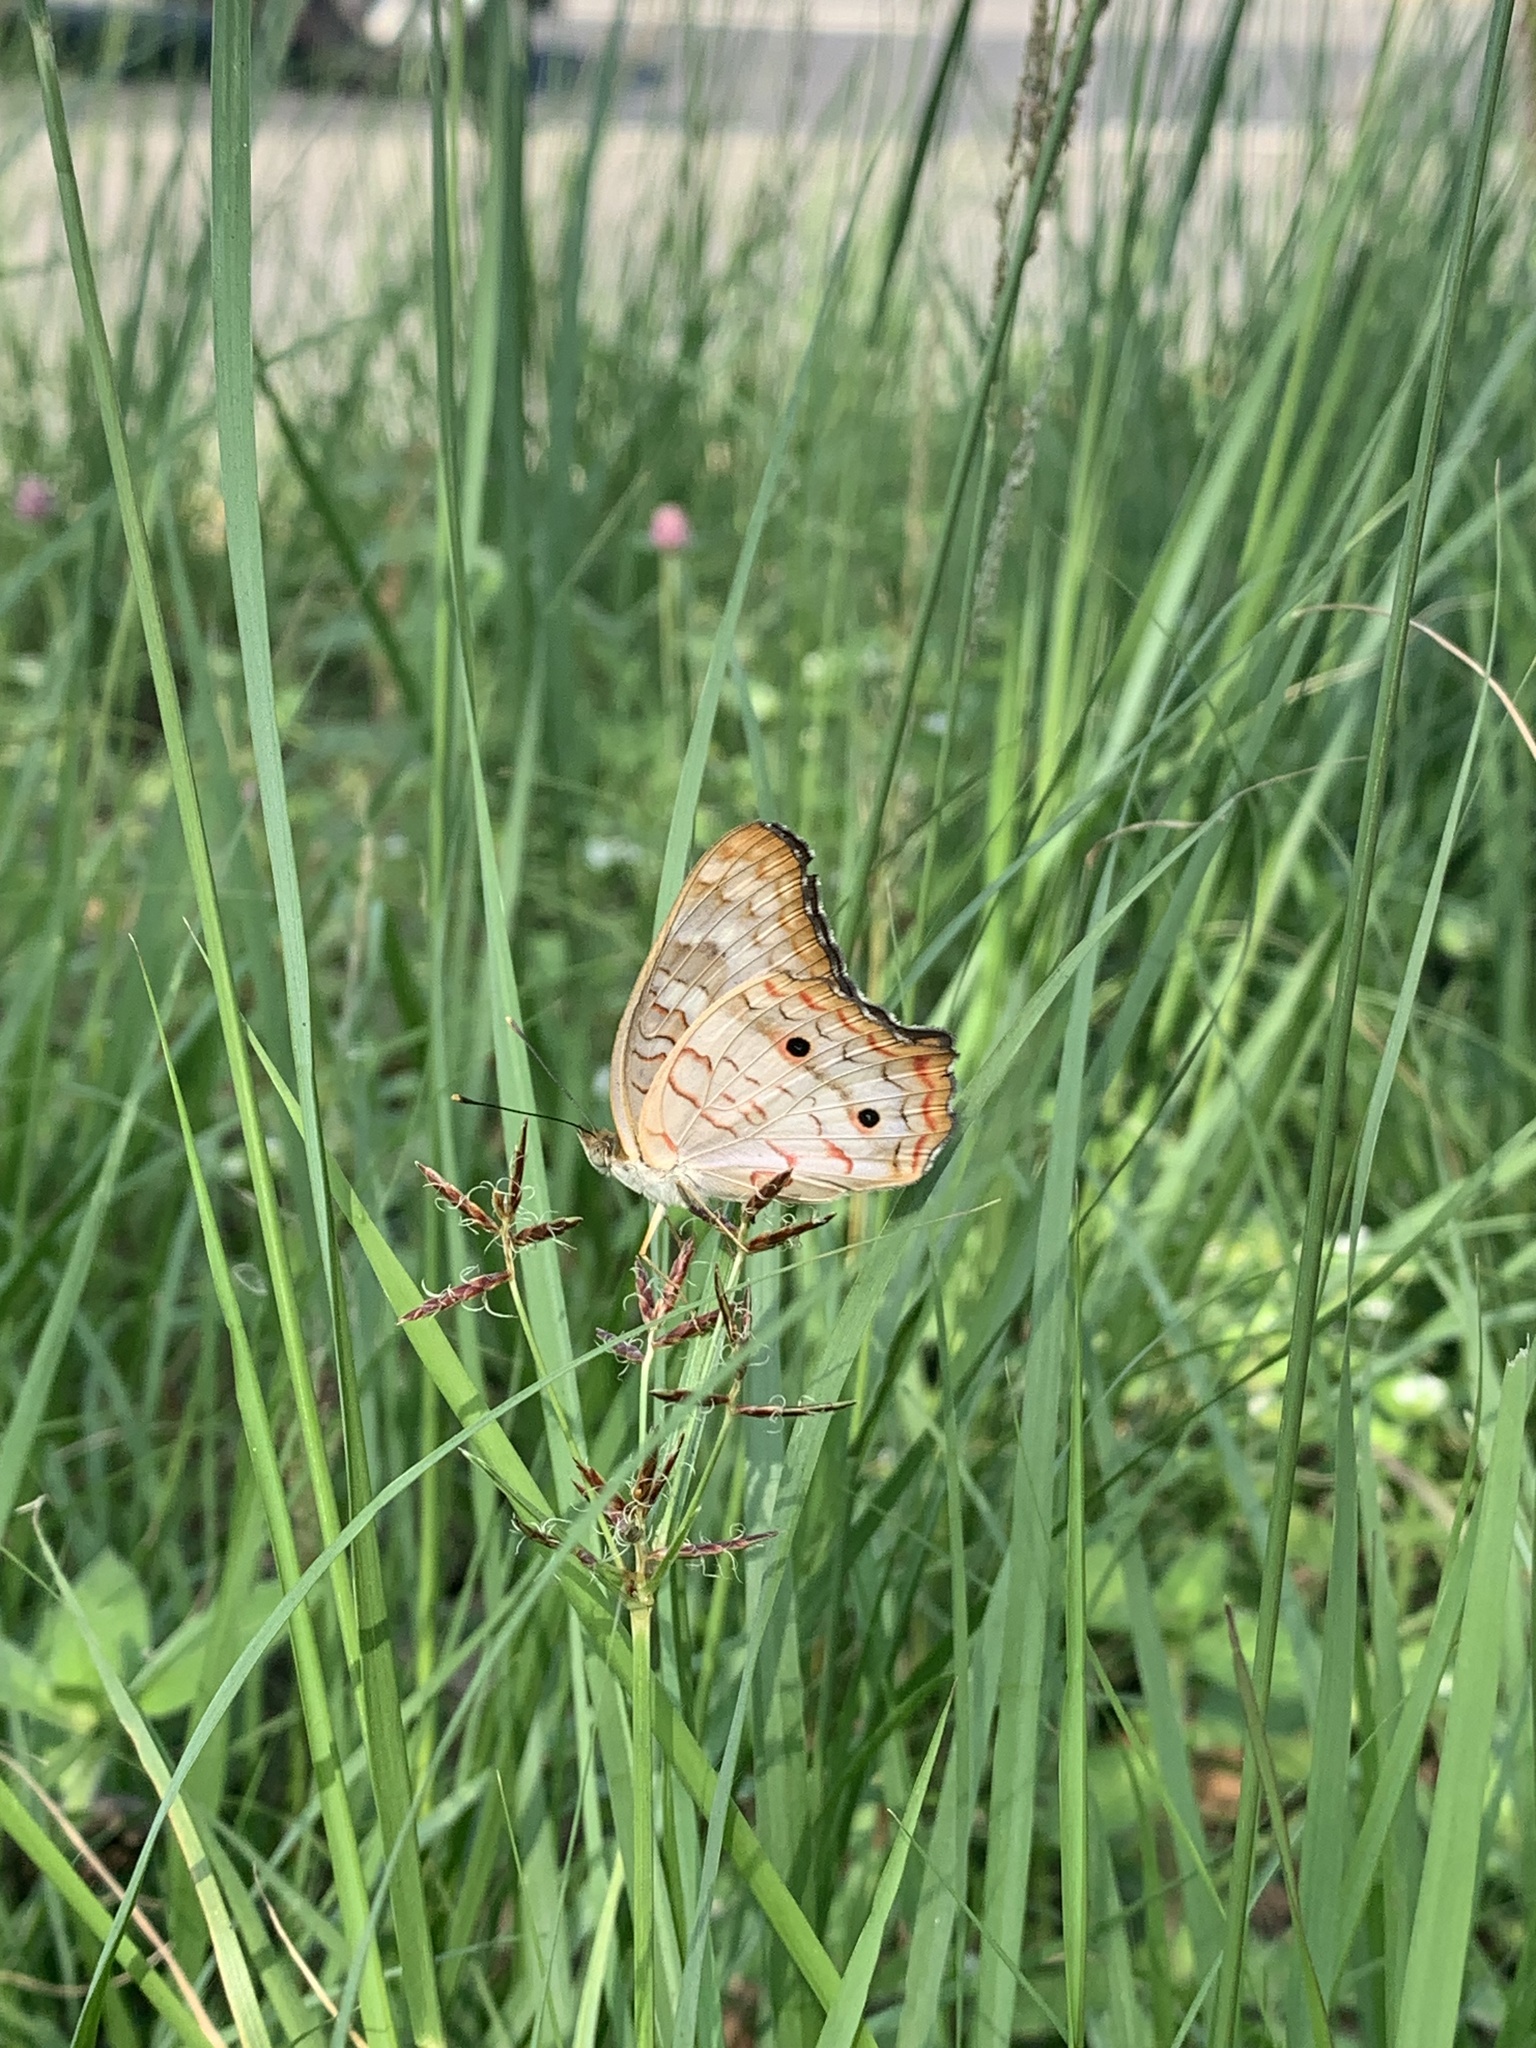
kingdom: Animalia
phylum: Arthropoda
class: Insecta
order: Lepidoptera
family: Nymphalidae
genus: Anartia
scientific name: Anartia jatrophae
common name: White peacock
